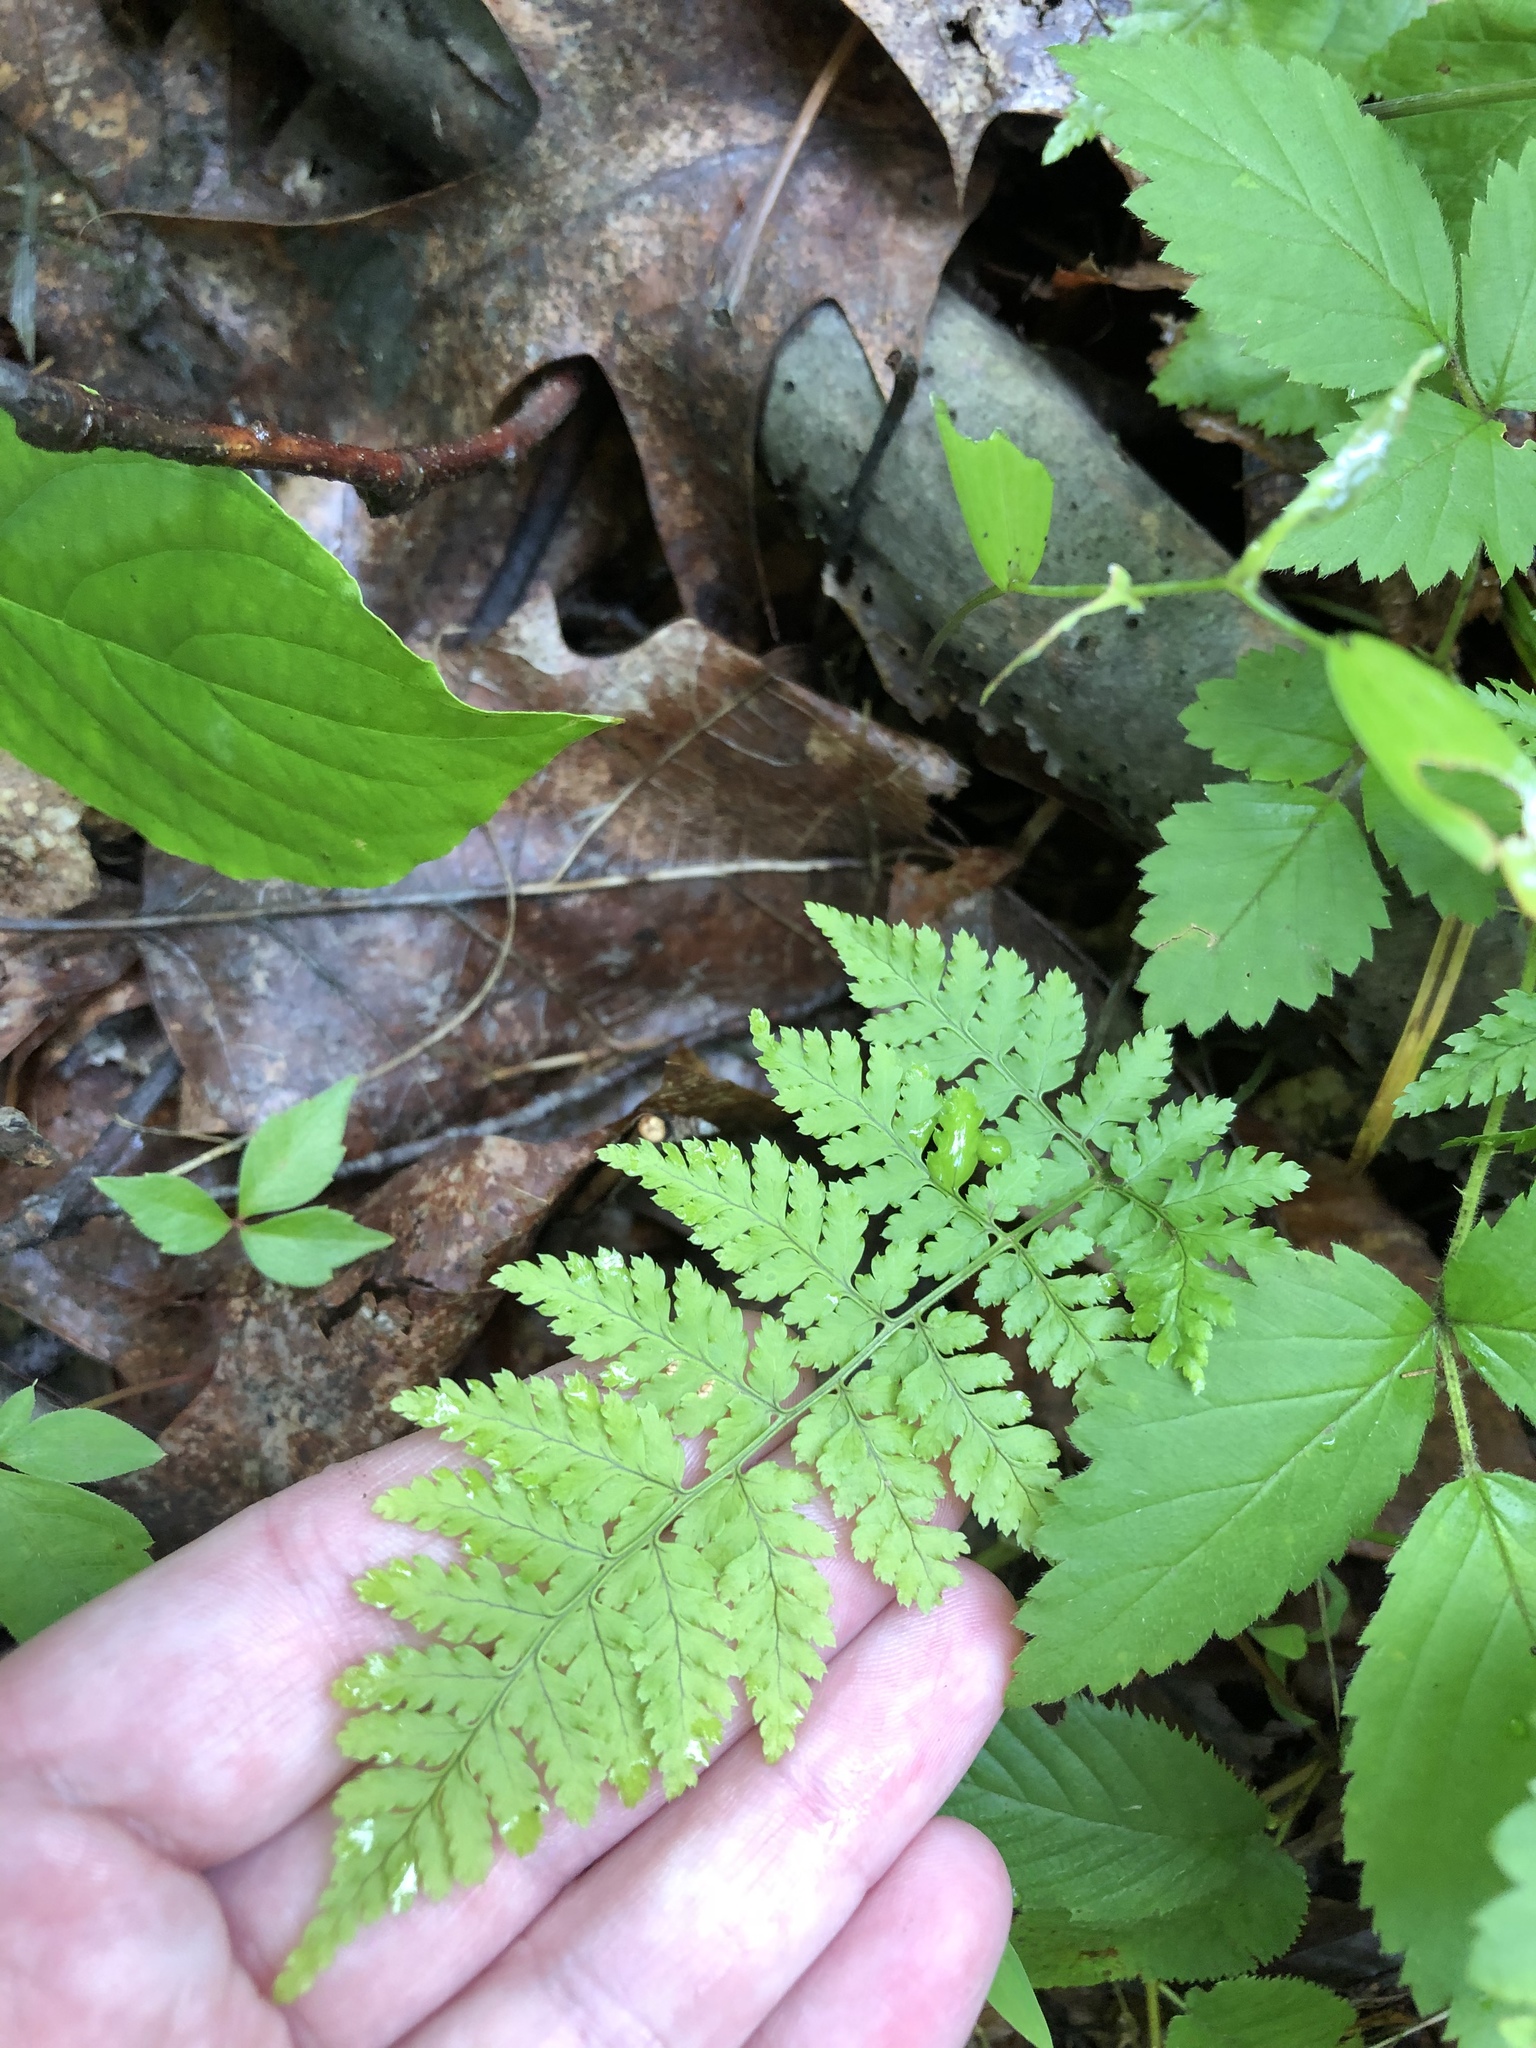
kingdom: Plantae
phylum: Tracheophyta
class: Polypodiopsida
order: Polypodiales
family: Dryopteridaceae
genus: Dryopteris
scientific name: Dryopteris intermedia
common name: Evergreen wood fern
